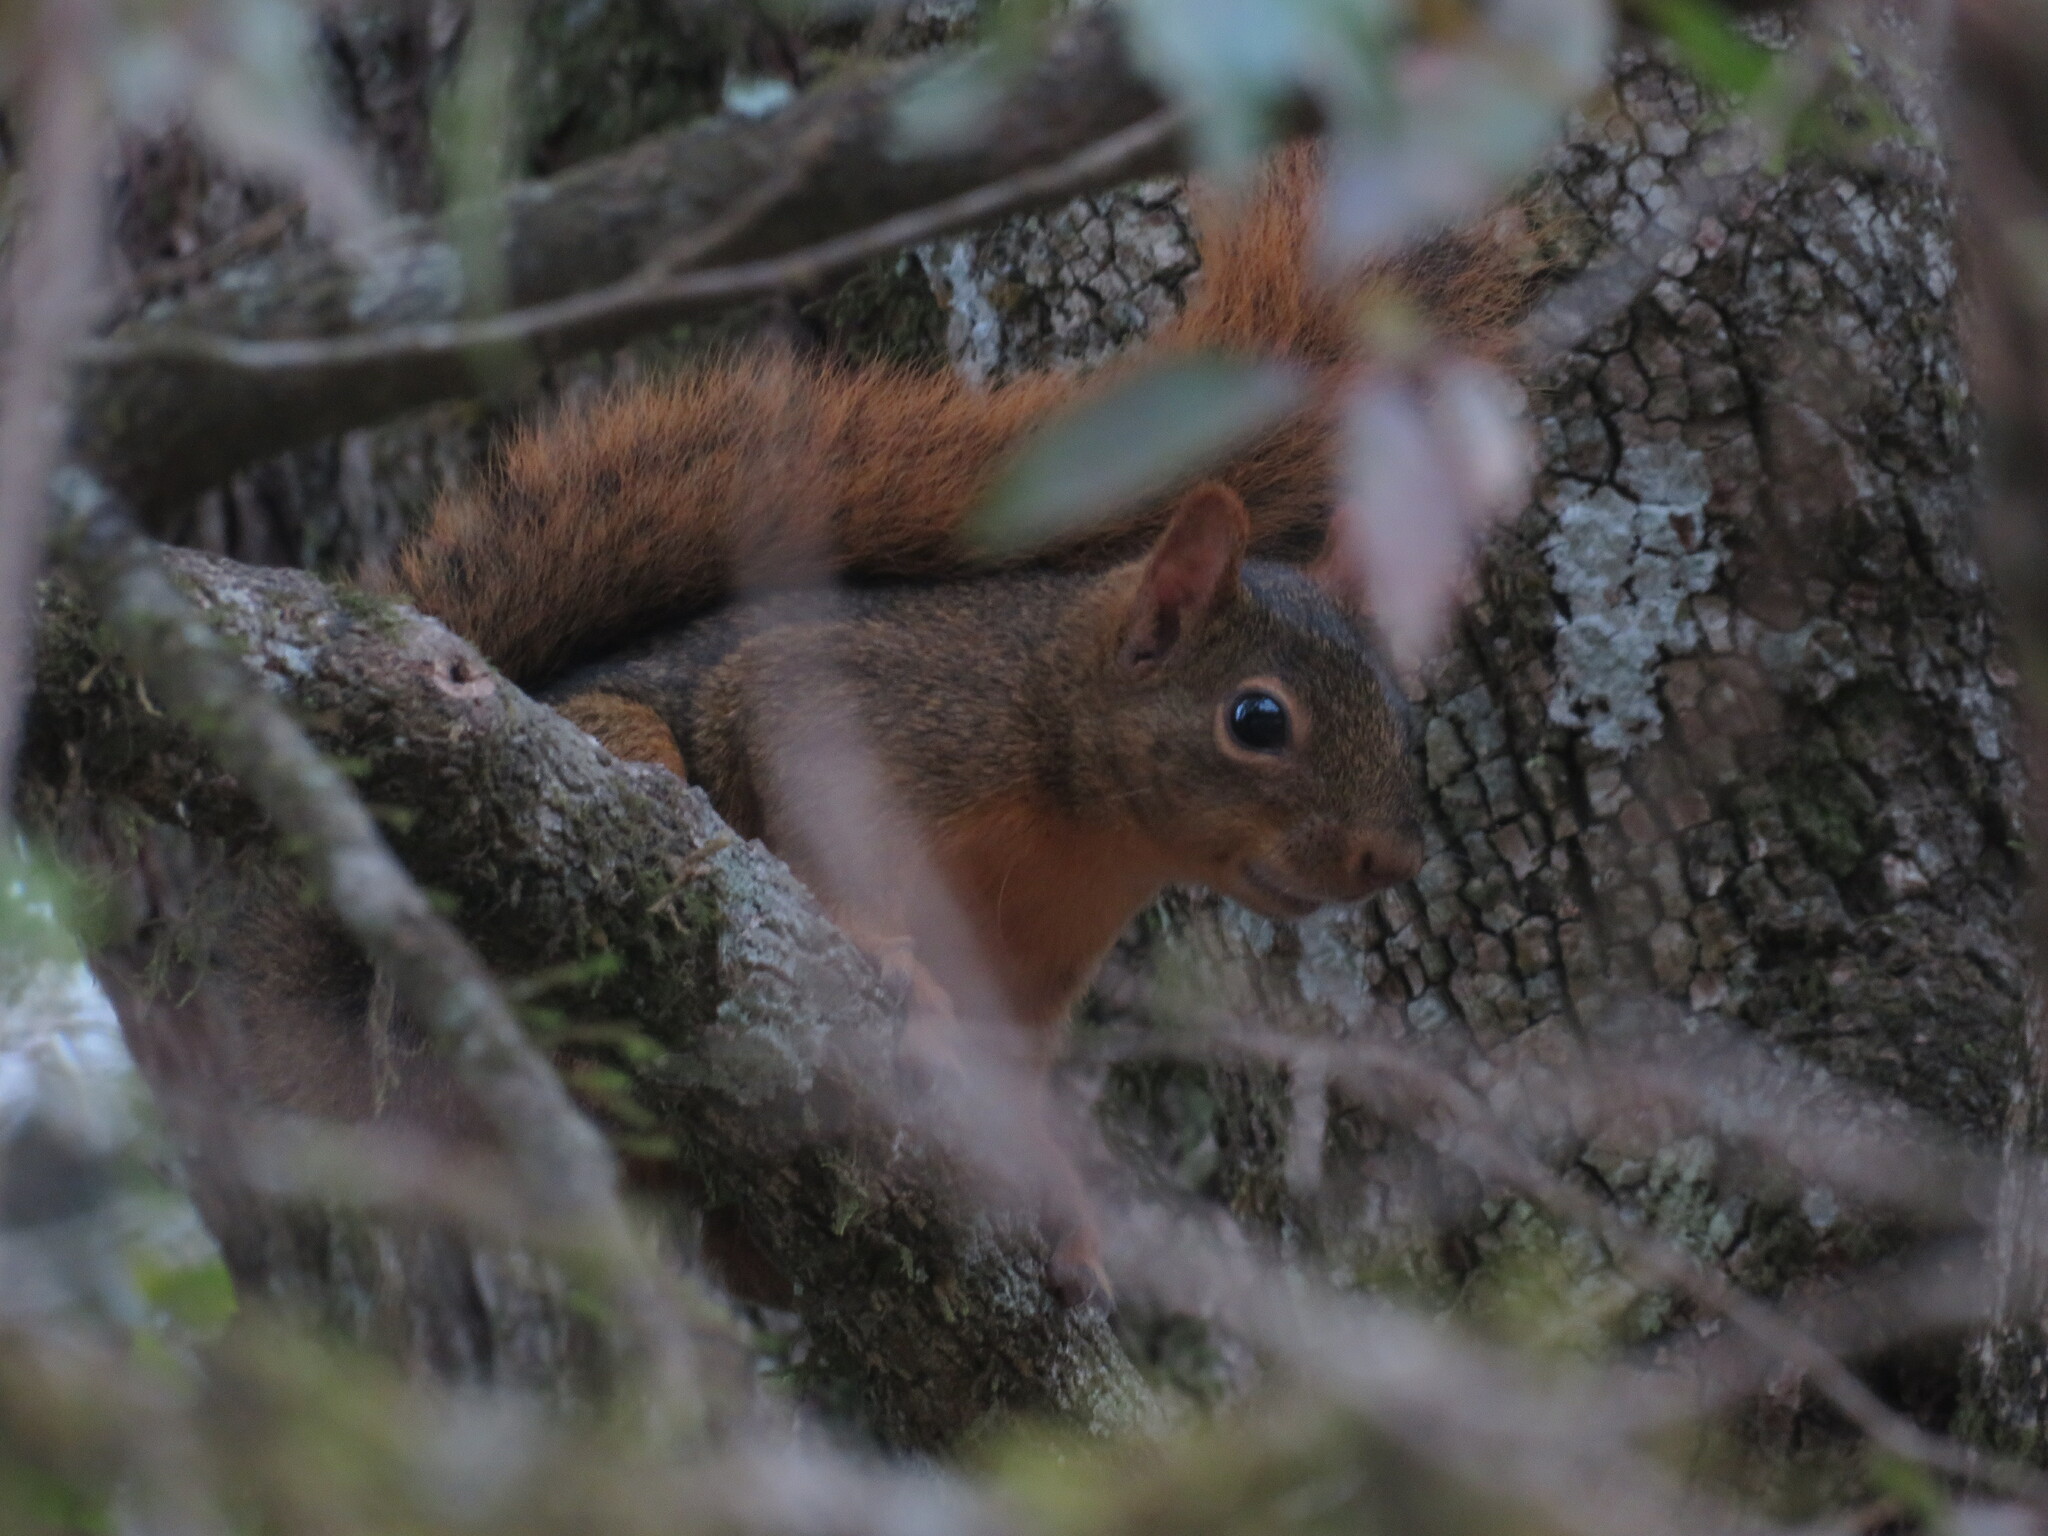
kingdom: Animalia
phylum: Chordata
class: Mammalia
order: Rodentia
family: Sciuridae
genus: Sciurus
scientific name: Sciurus ignitus
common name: Bolivian squirrel
